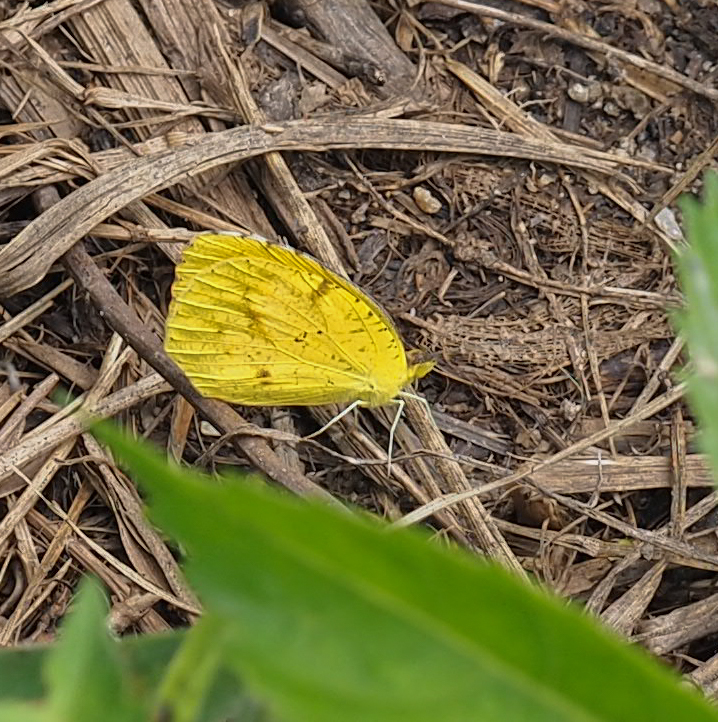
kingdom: Animalia
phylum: Arthropoda
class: Insecta
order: Lepidoptera
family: Pieridae
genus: Abaeis
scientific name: Abaeis nicippe
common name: Sleepy orange
